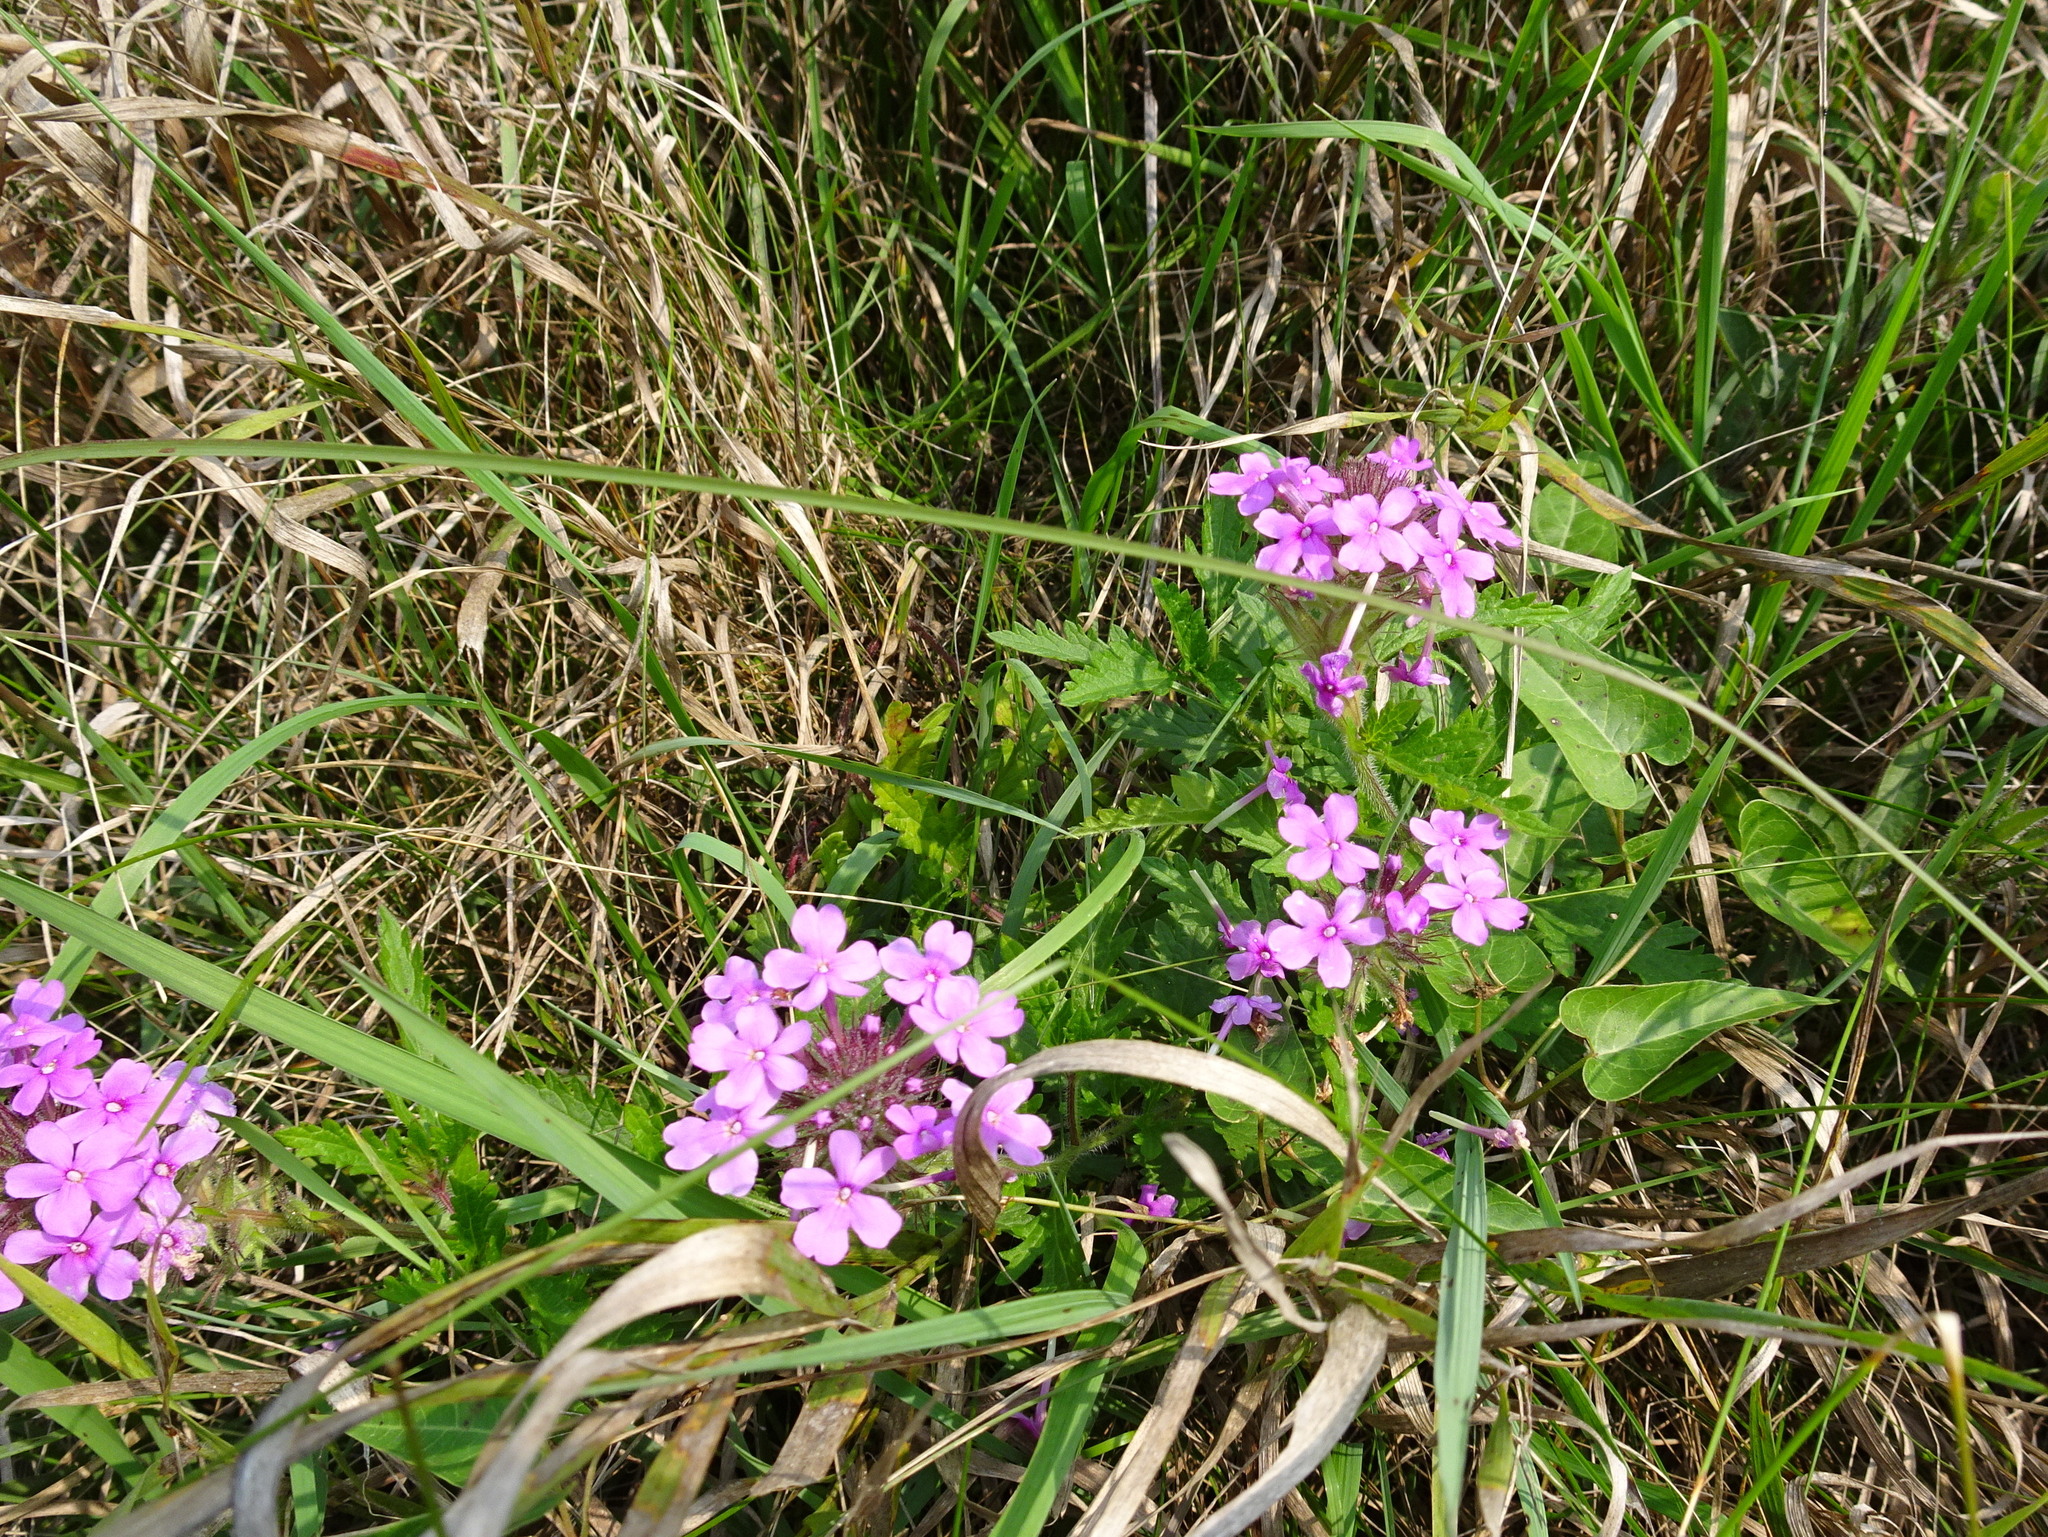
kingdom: Plantae
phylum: Tracheophyta
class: Magnoliopsida
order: Lamiales
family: Verbenaceae
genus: Verbena
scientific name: Verbena canadensis
